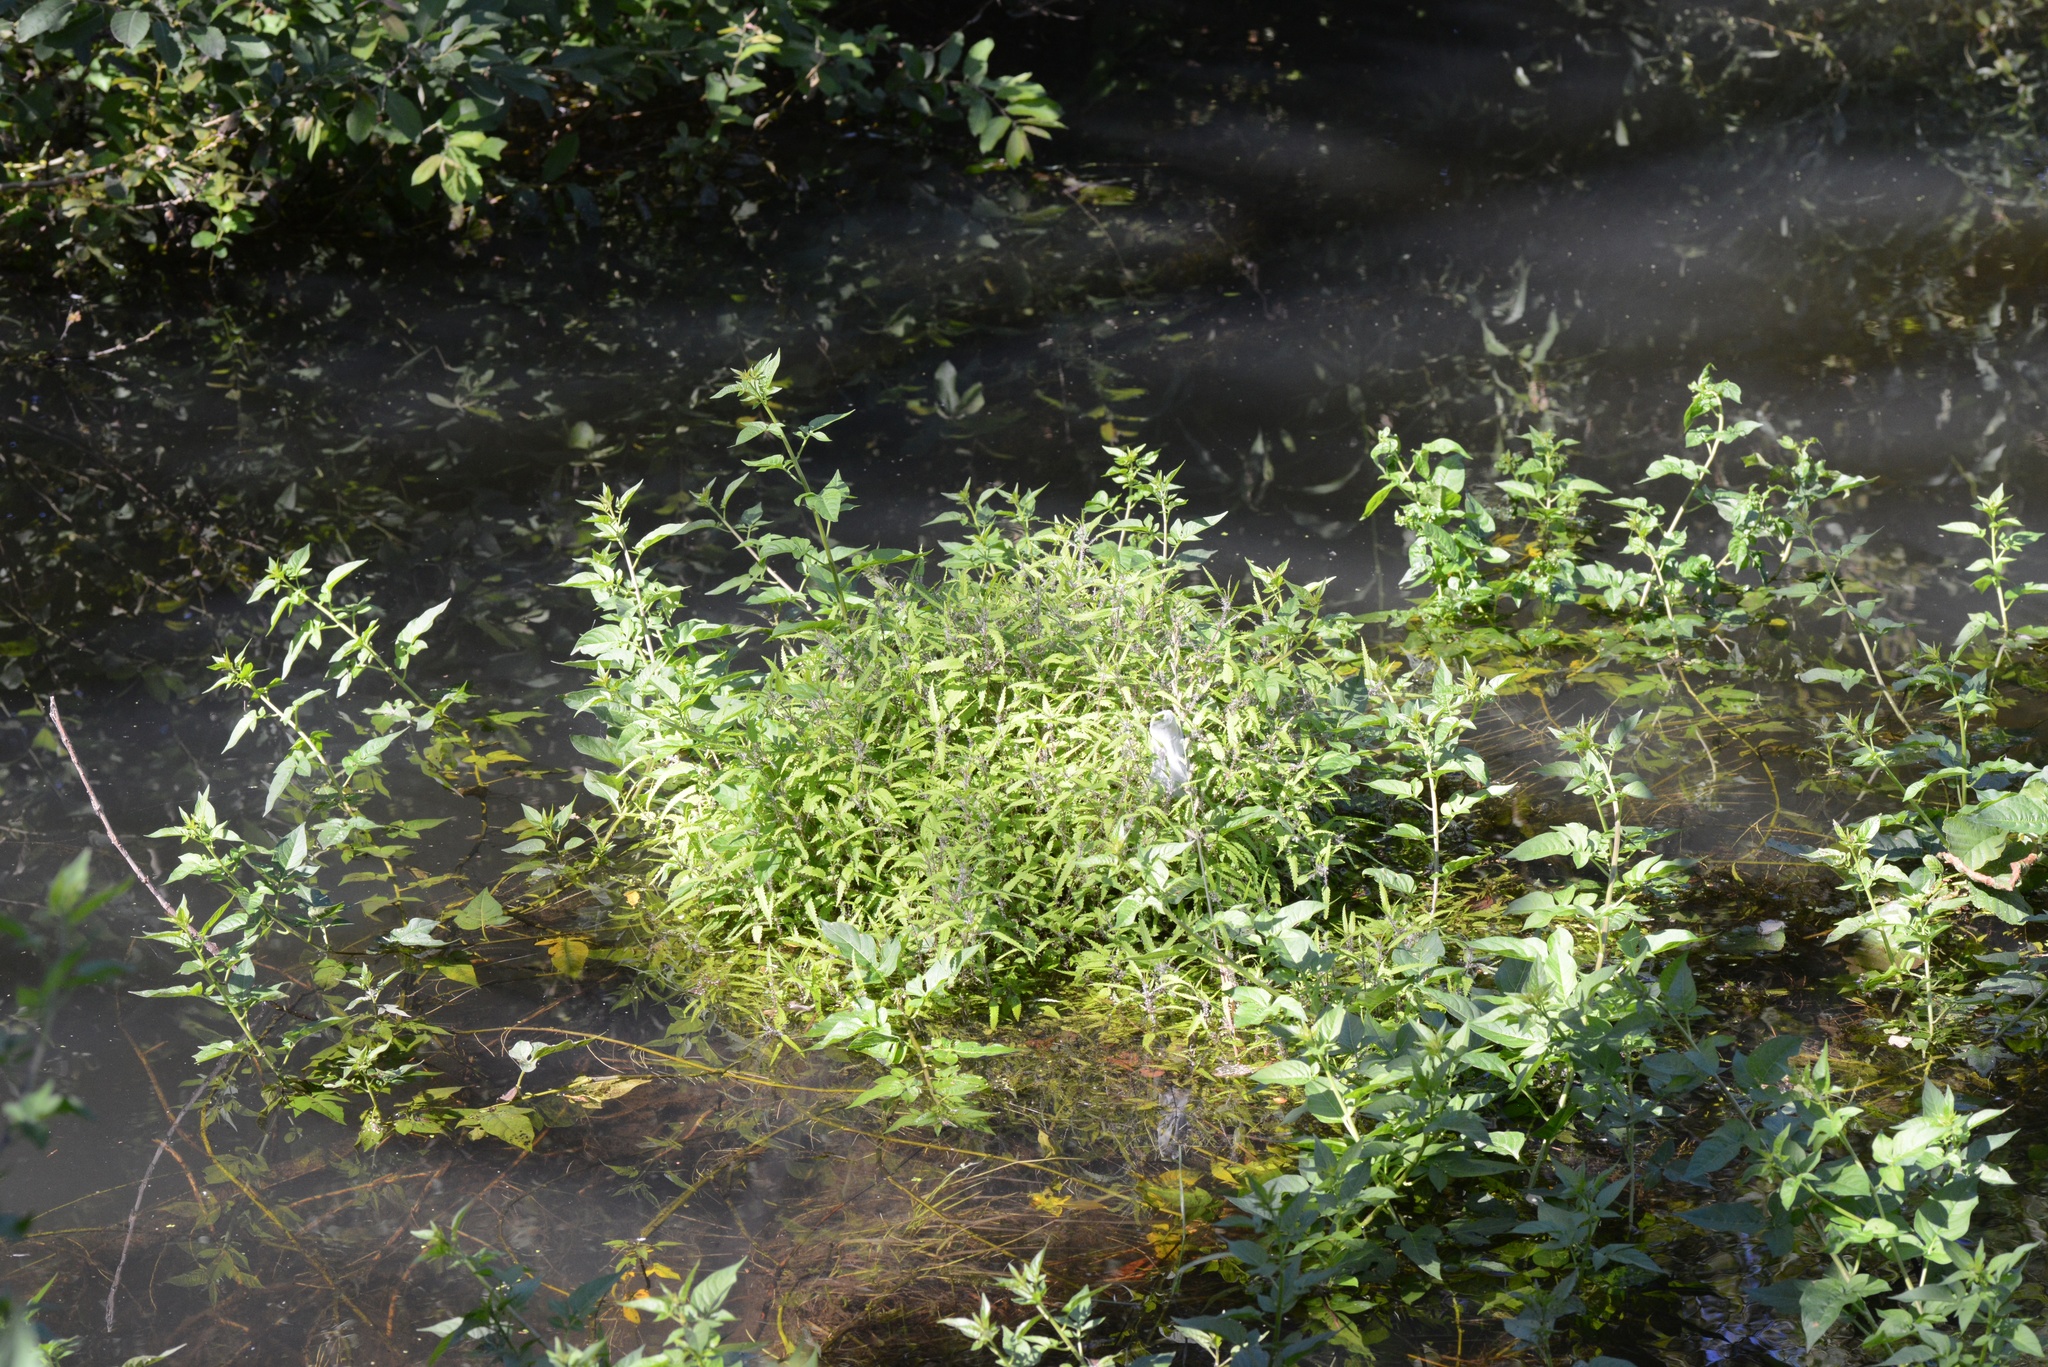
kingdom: Plantae
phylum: Tracheophyta
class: Magnoliopsida
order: Rosales
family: Urticaceae
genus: Urtica
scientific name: Urtica perconfusa
